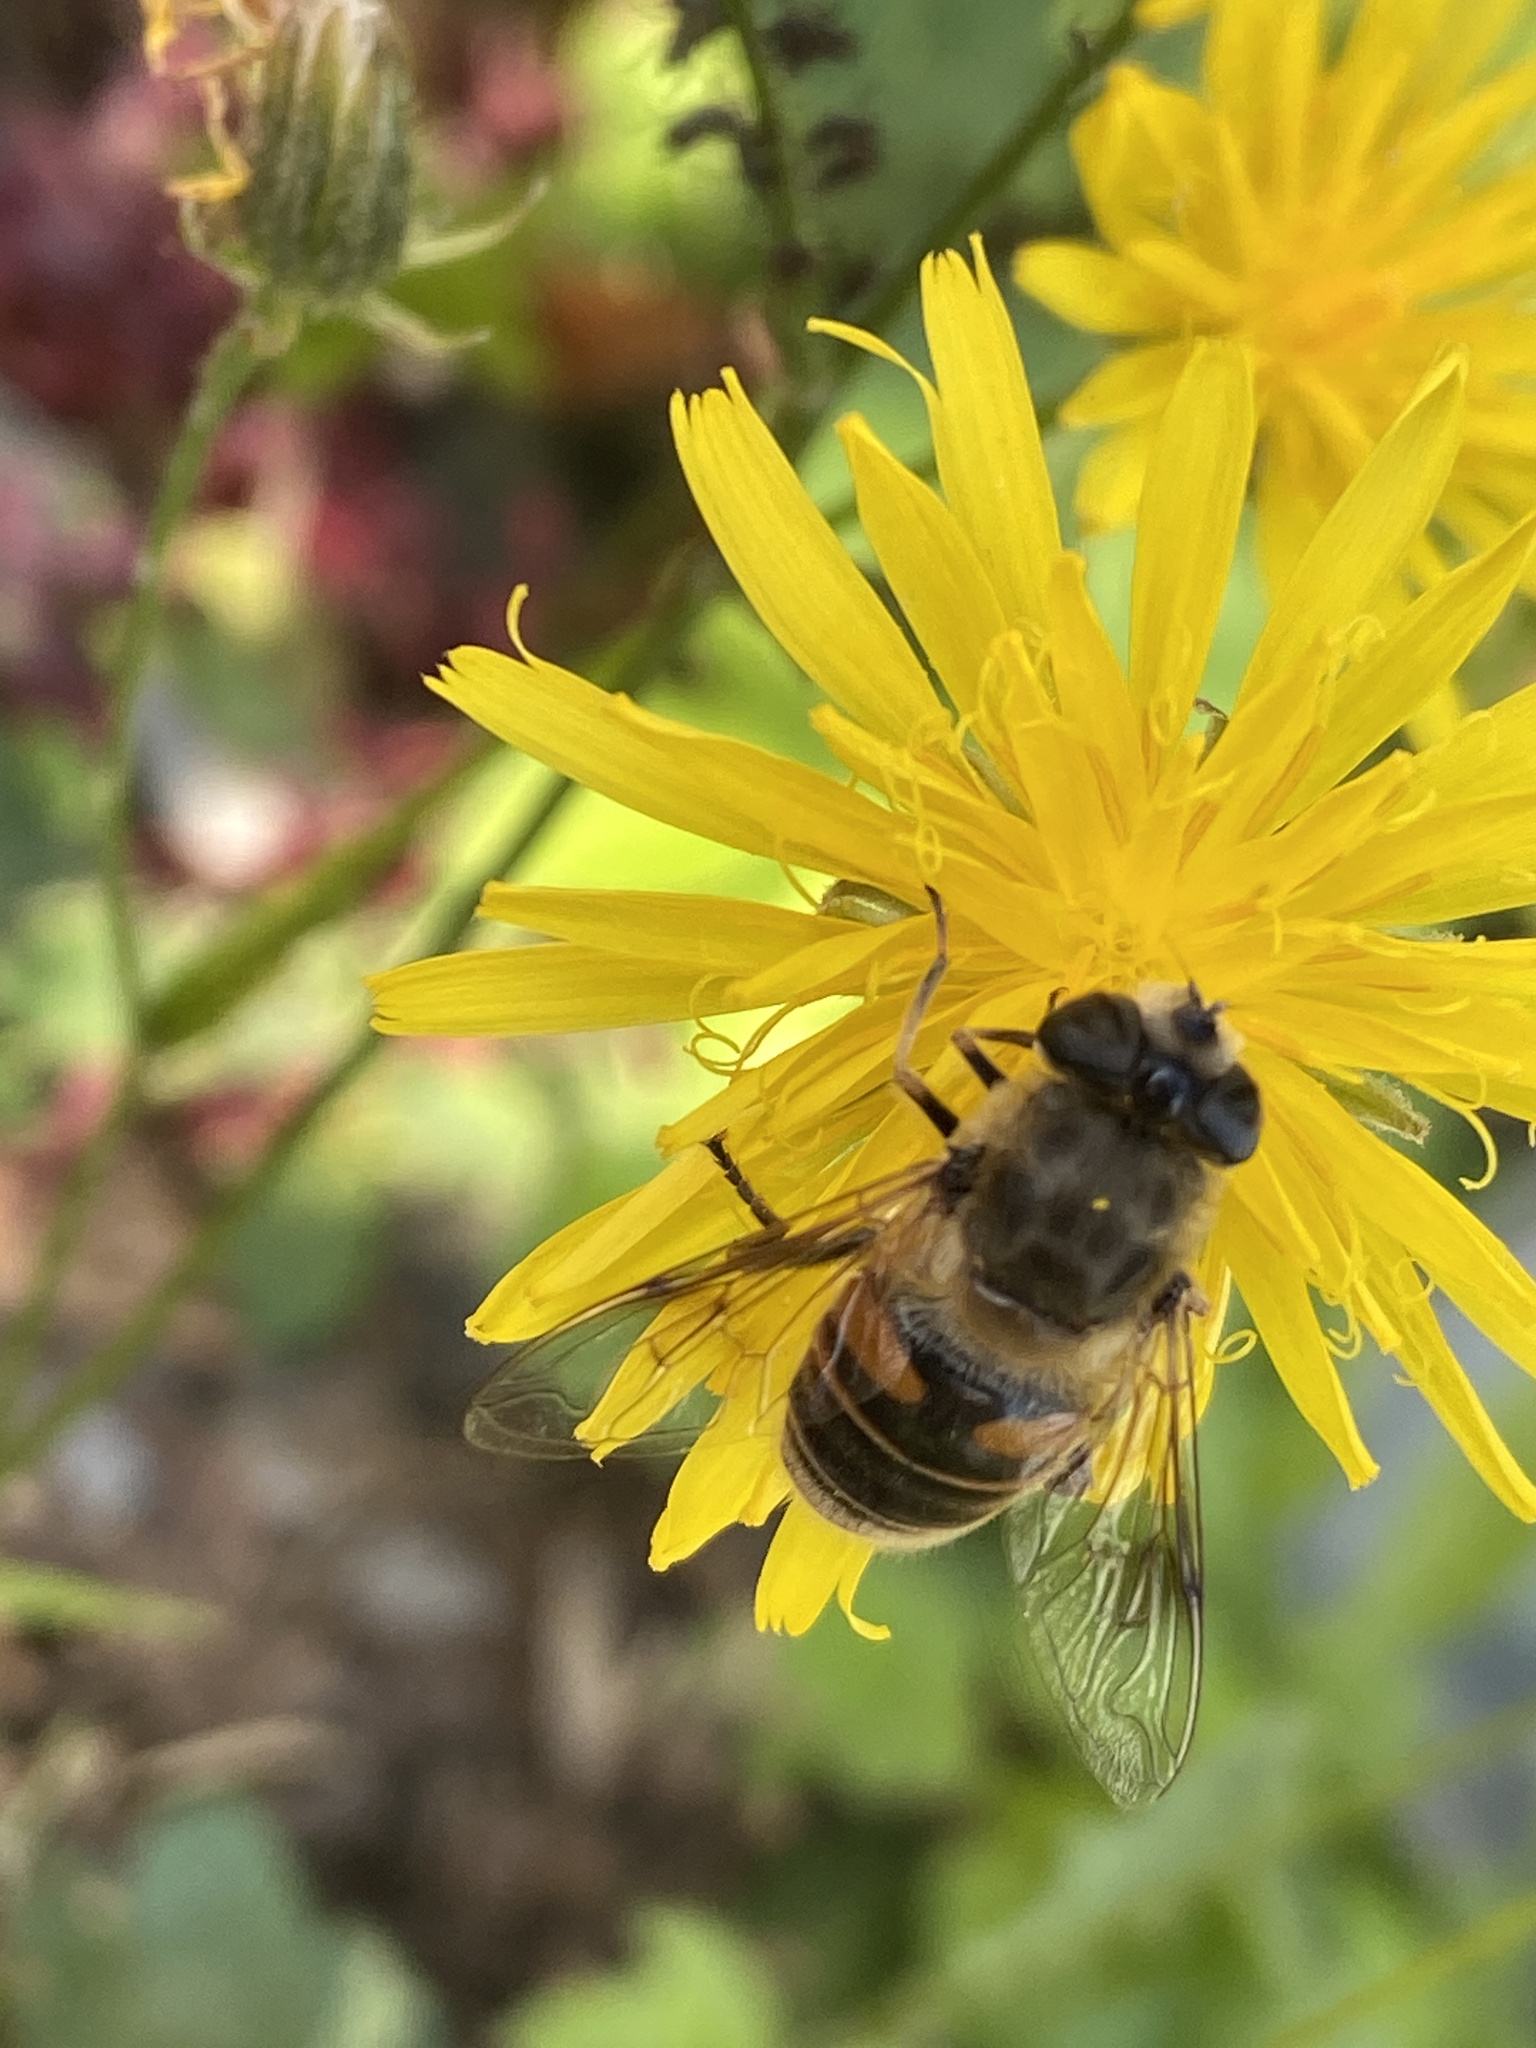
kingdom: Animalia
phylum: Arthropoda
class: Insecta
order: Diptera
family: Syrphidae
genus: Eristalis
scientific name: Eristalis tenax
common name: Drone fly
